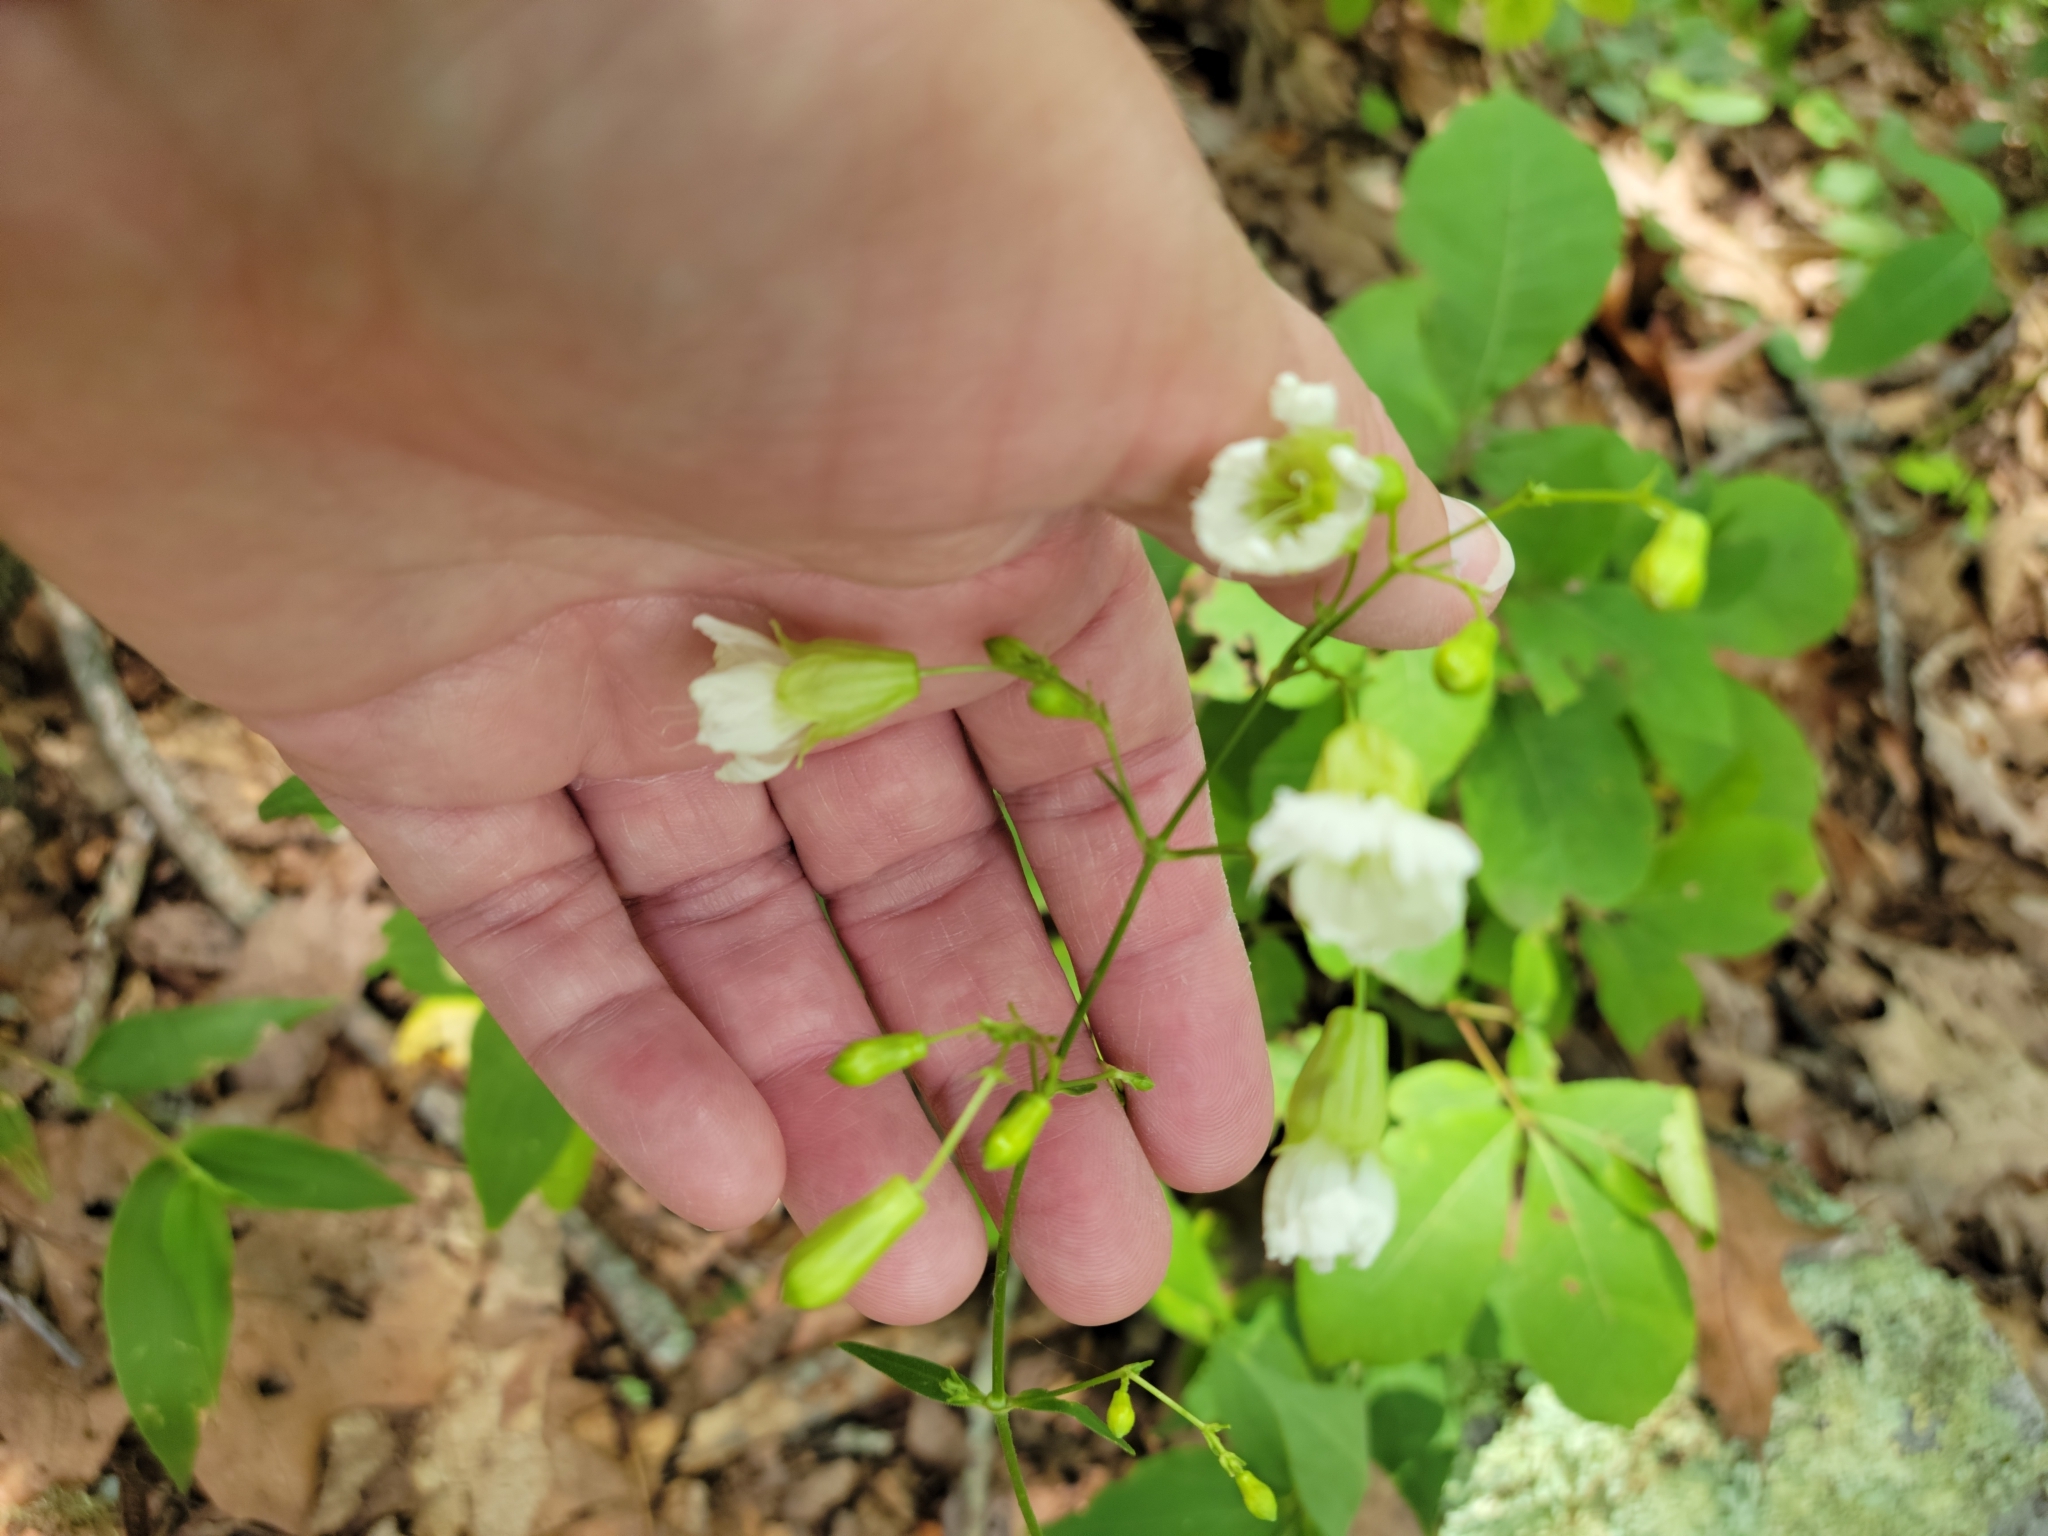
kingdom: Plantae
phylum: Tracheophyta
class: Magnoliopsida
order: Caryophyllales
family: Caryophyllaceae
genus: Silene
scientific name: Silene stellata
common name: Starry campion
